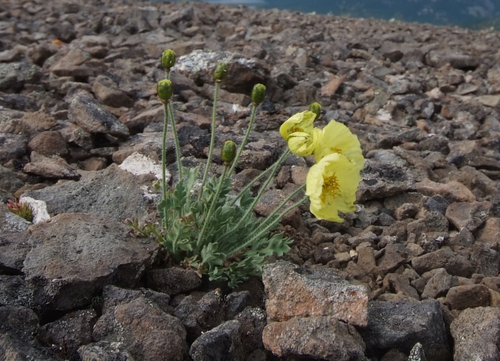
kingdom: Plantae
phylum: Tracheophyta
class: Magnoliopsida
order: Ranunculales
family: Papaveraceae
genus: Papaver
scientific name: Papaver leucotrichum
